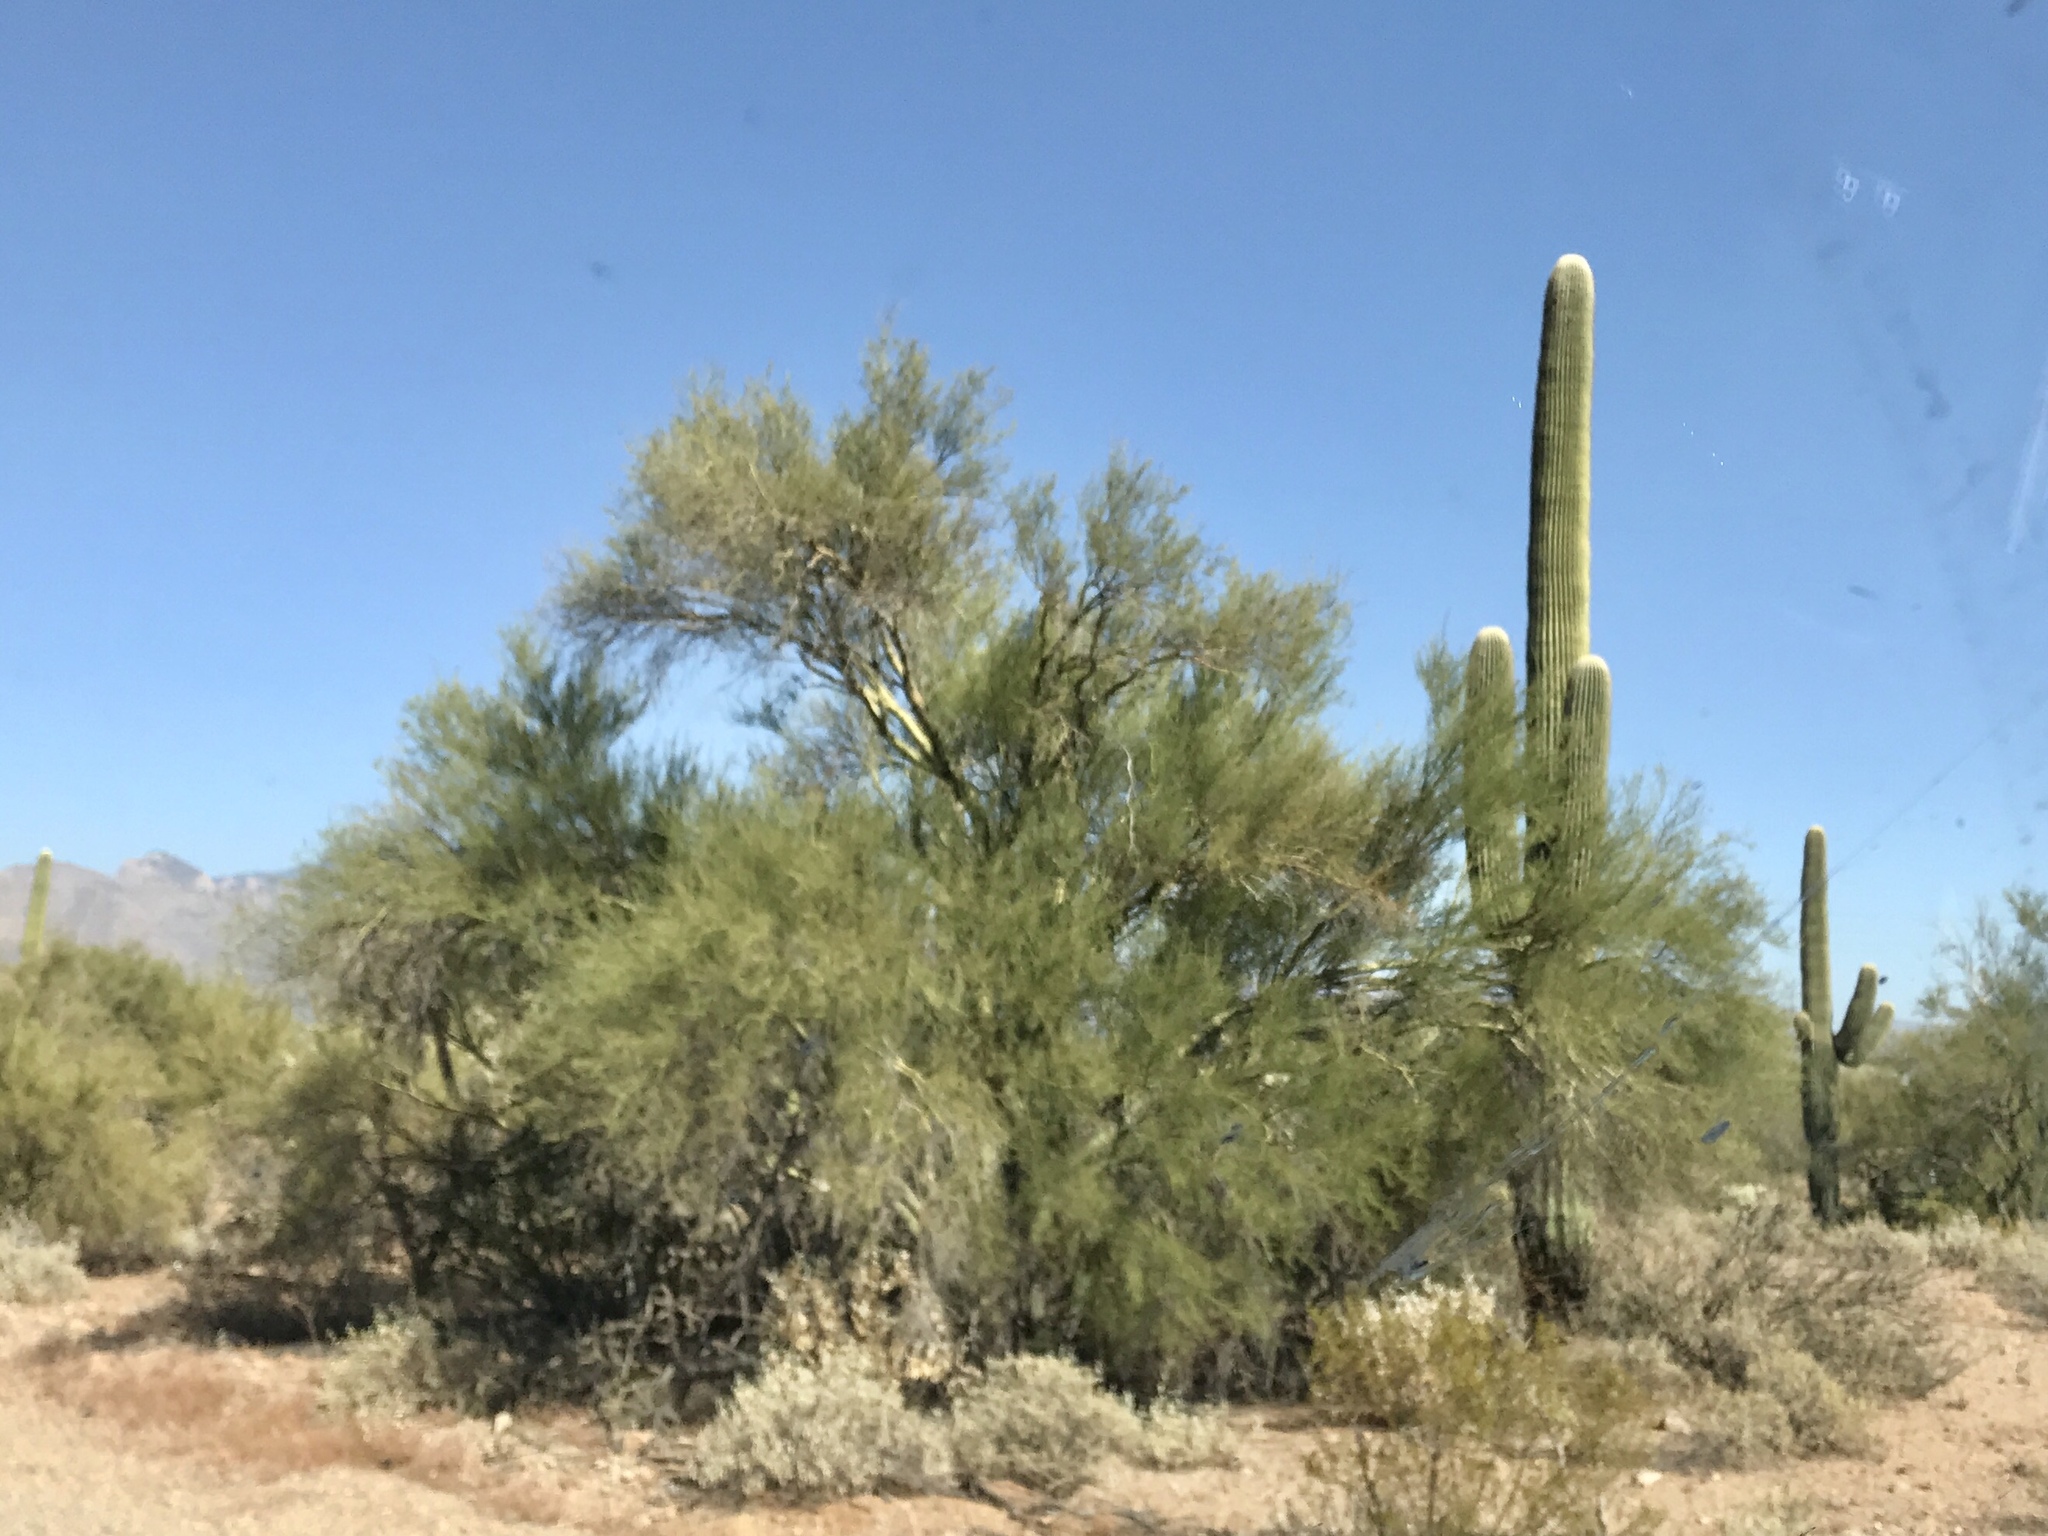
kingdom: Plantae
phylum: Tracheophyta
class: Magnoliopsida
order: Fabales
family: Fabaceae
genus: Parkinsonia
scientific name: Parkinsonia microphylla
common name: Yellow paloverde
